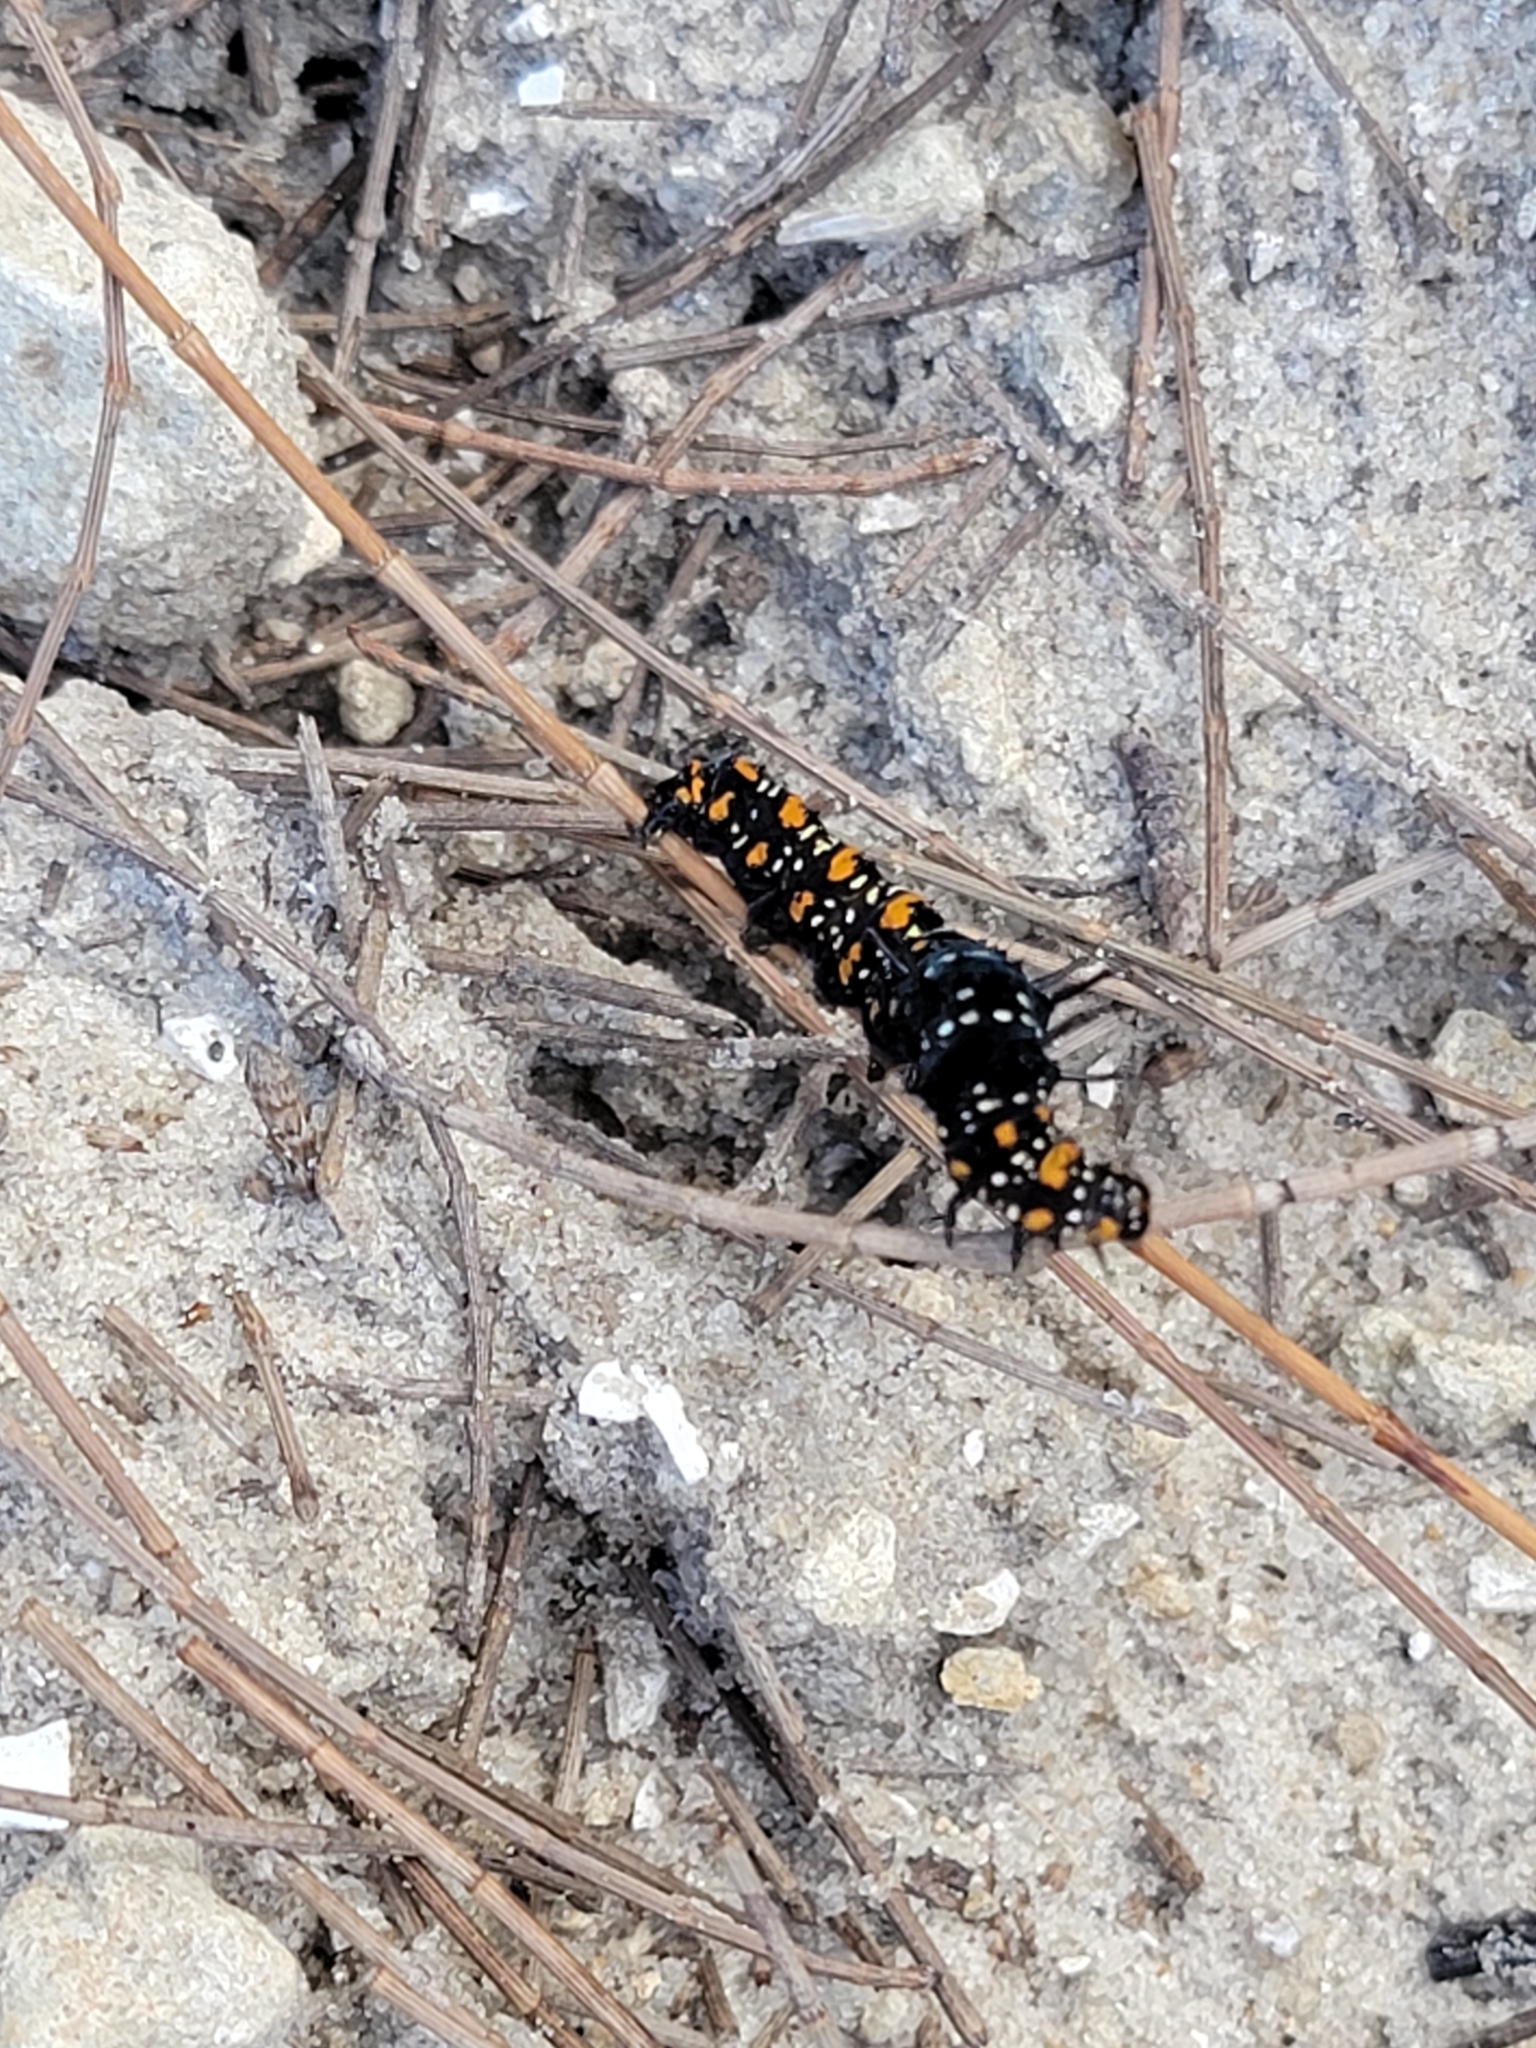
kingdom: Animalia
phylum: Arthropoda
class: Insecta
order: Lepidoptera
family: Noctuidae
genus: Cydosia
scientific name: Cydosia nobilitella
